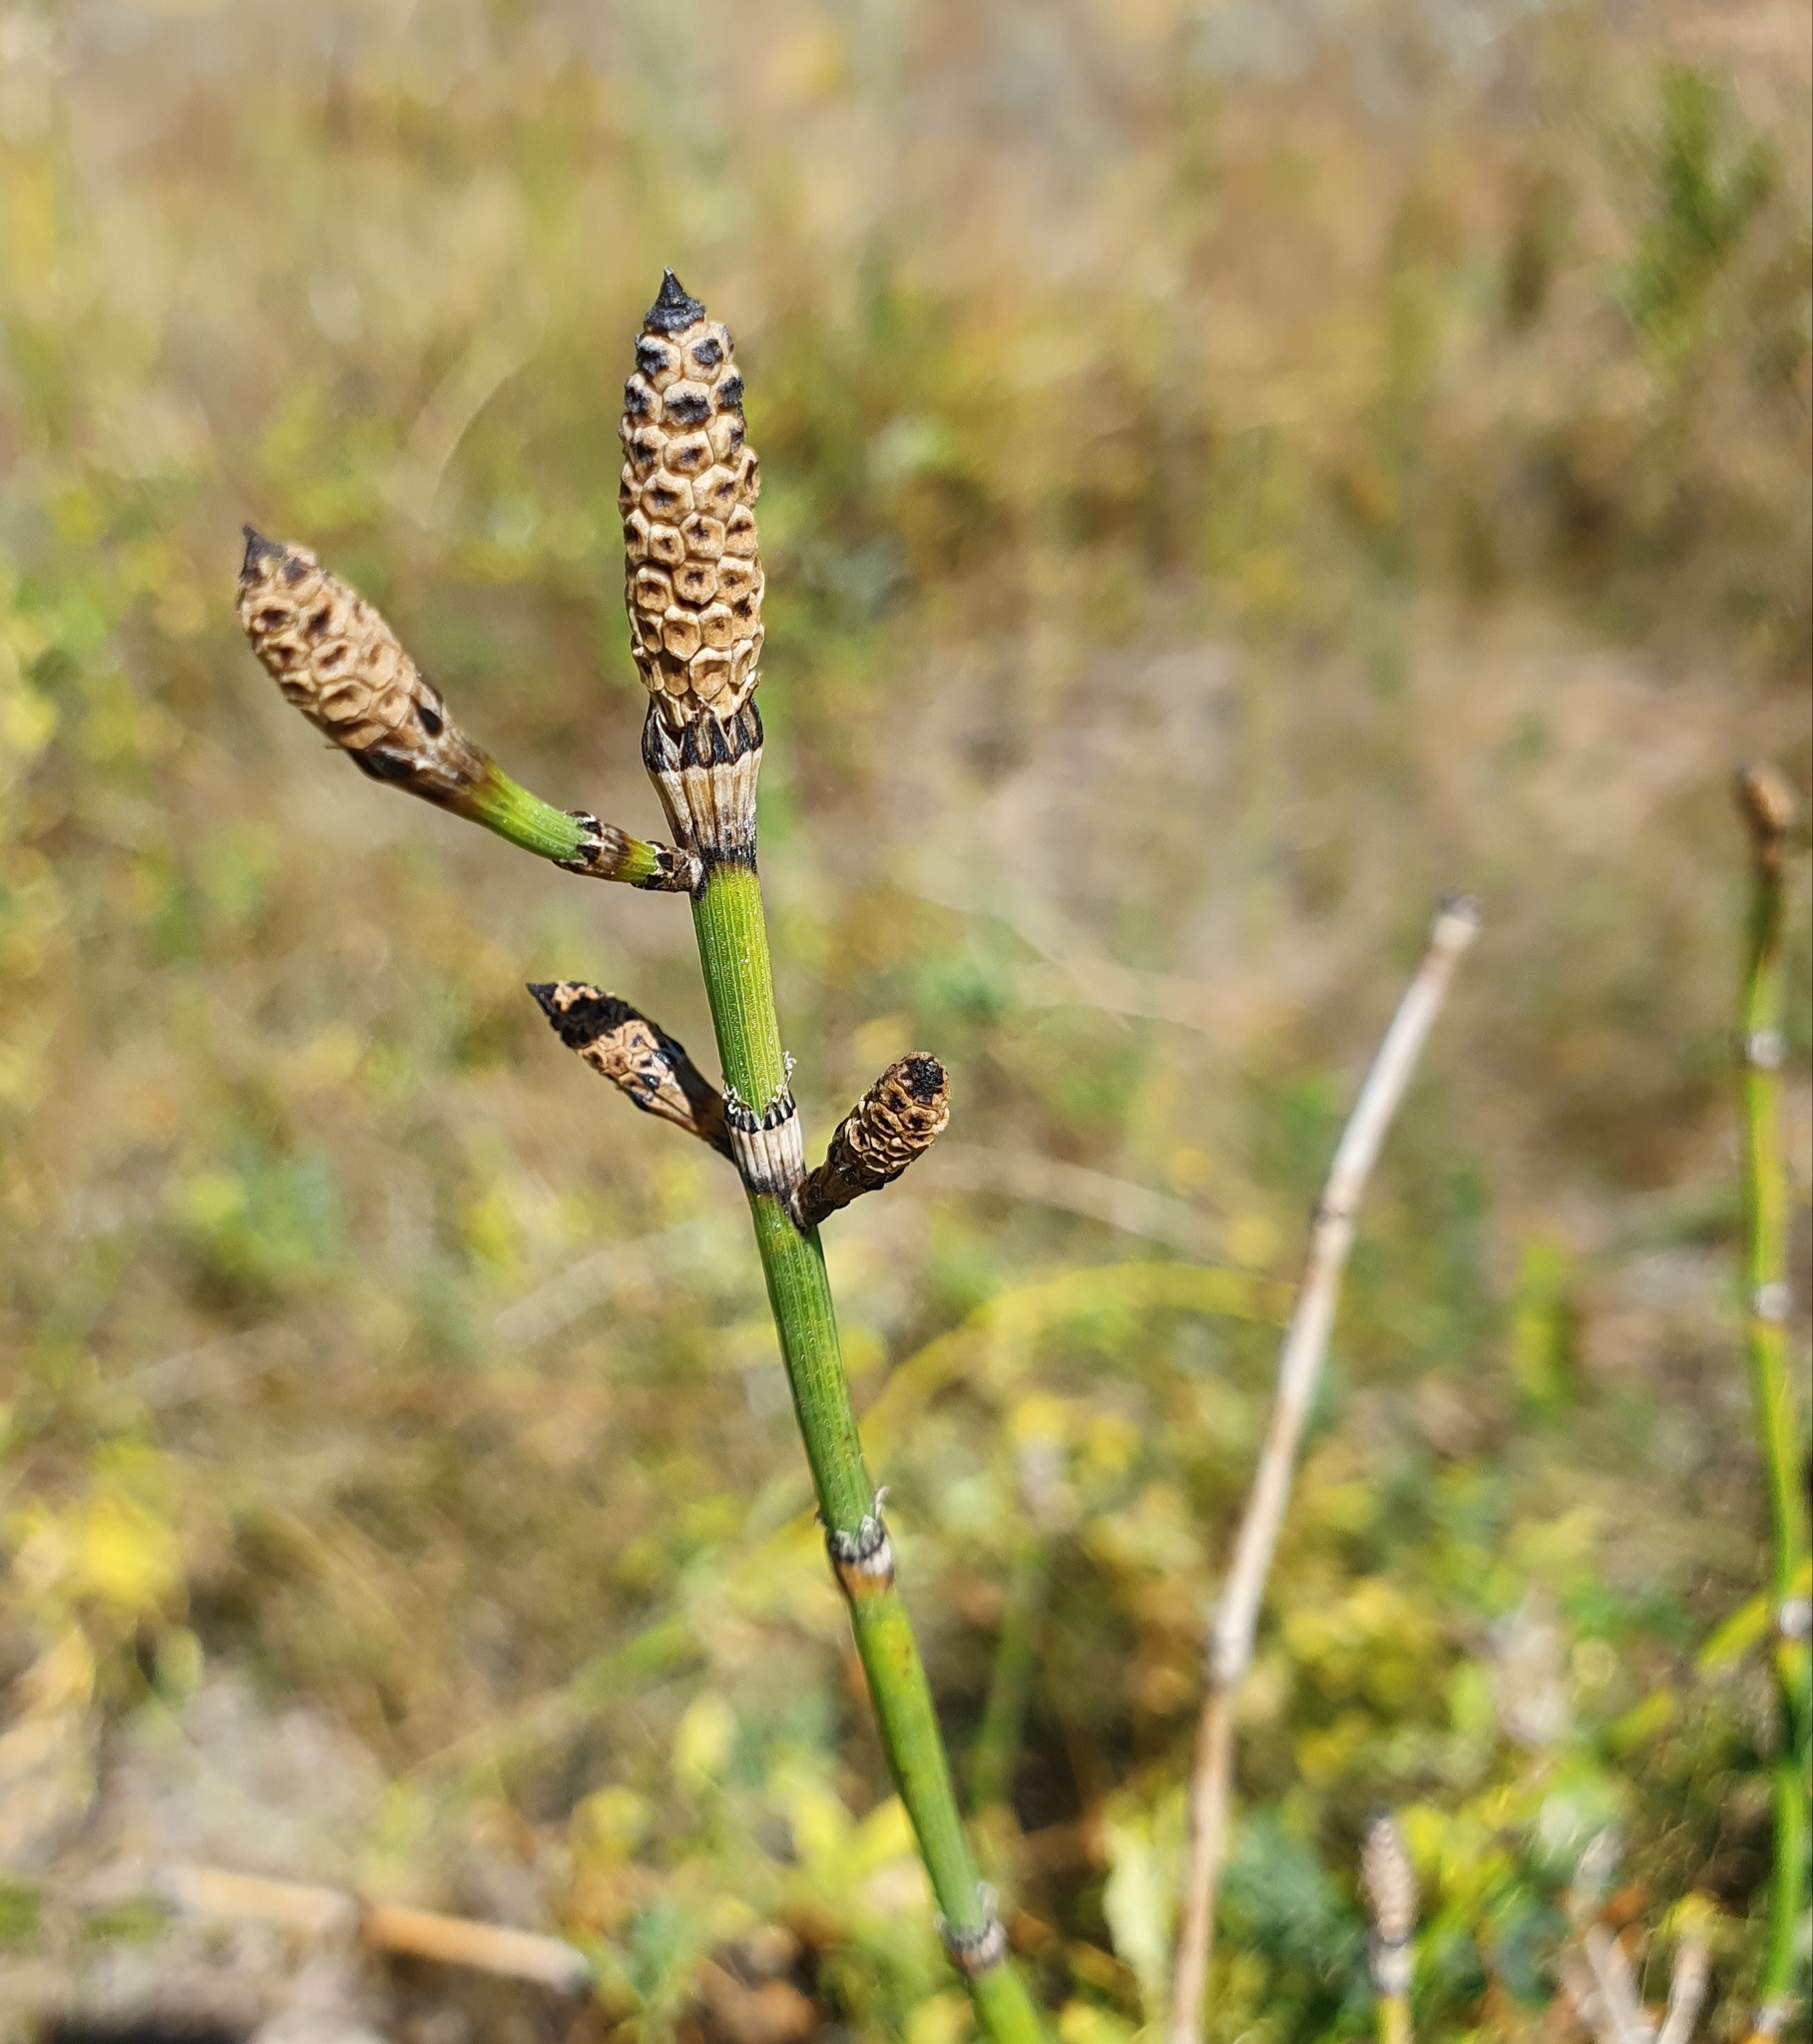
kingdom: Plantae
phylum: Tracheophyta
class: Polypodiopsida
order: Equisetales
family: Equisetaceae
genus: Equisetum
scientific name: Equisetum hyemale
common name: Rough horsetail
